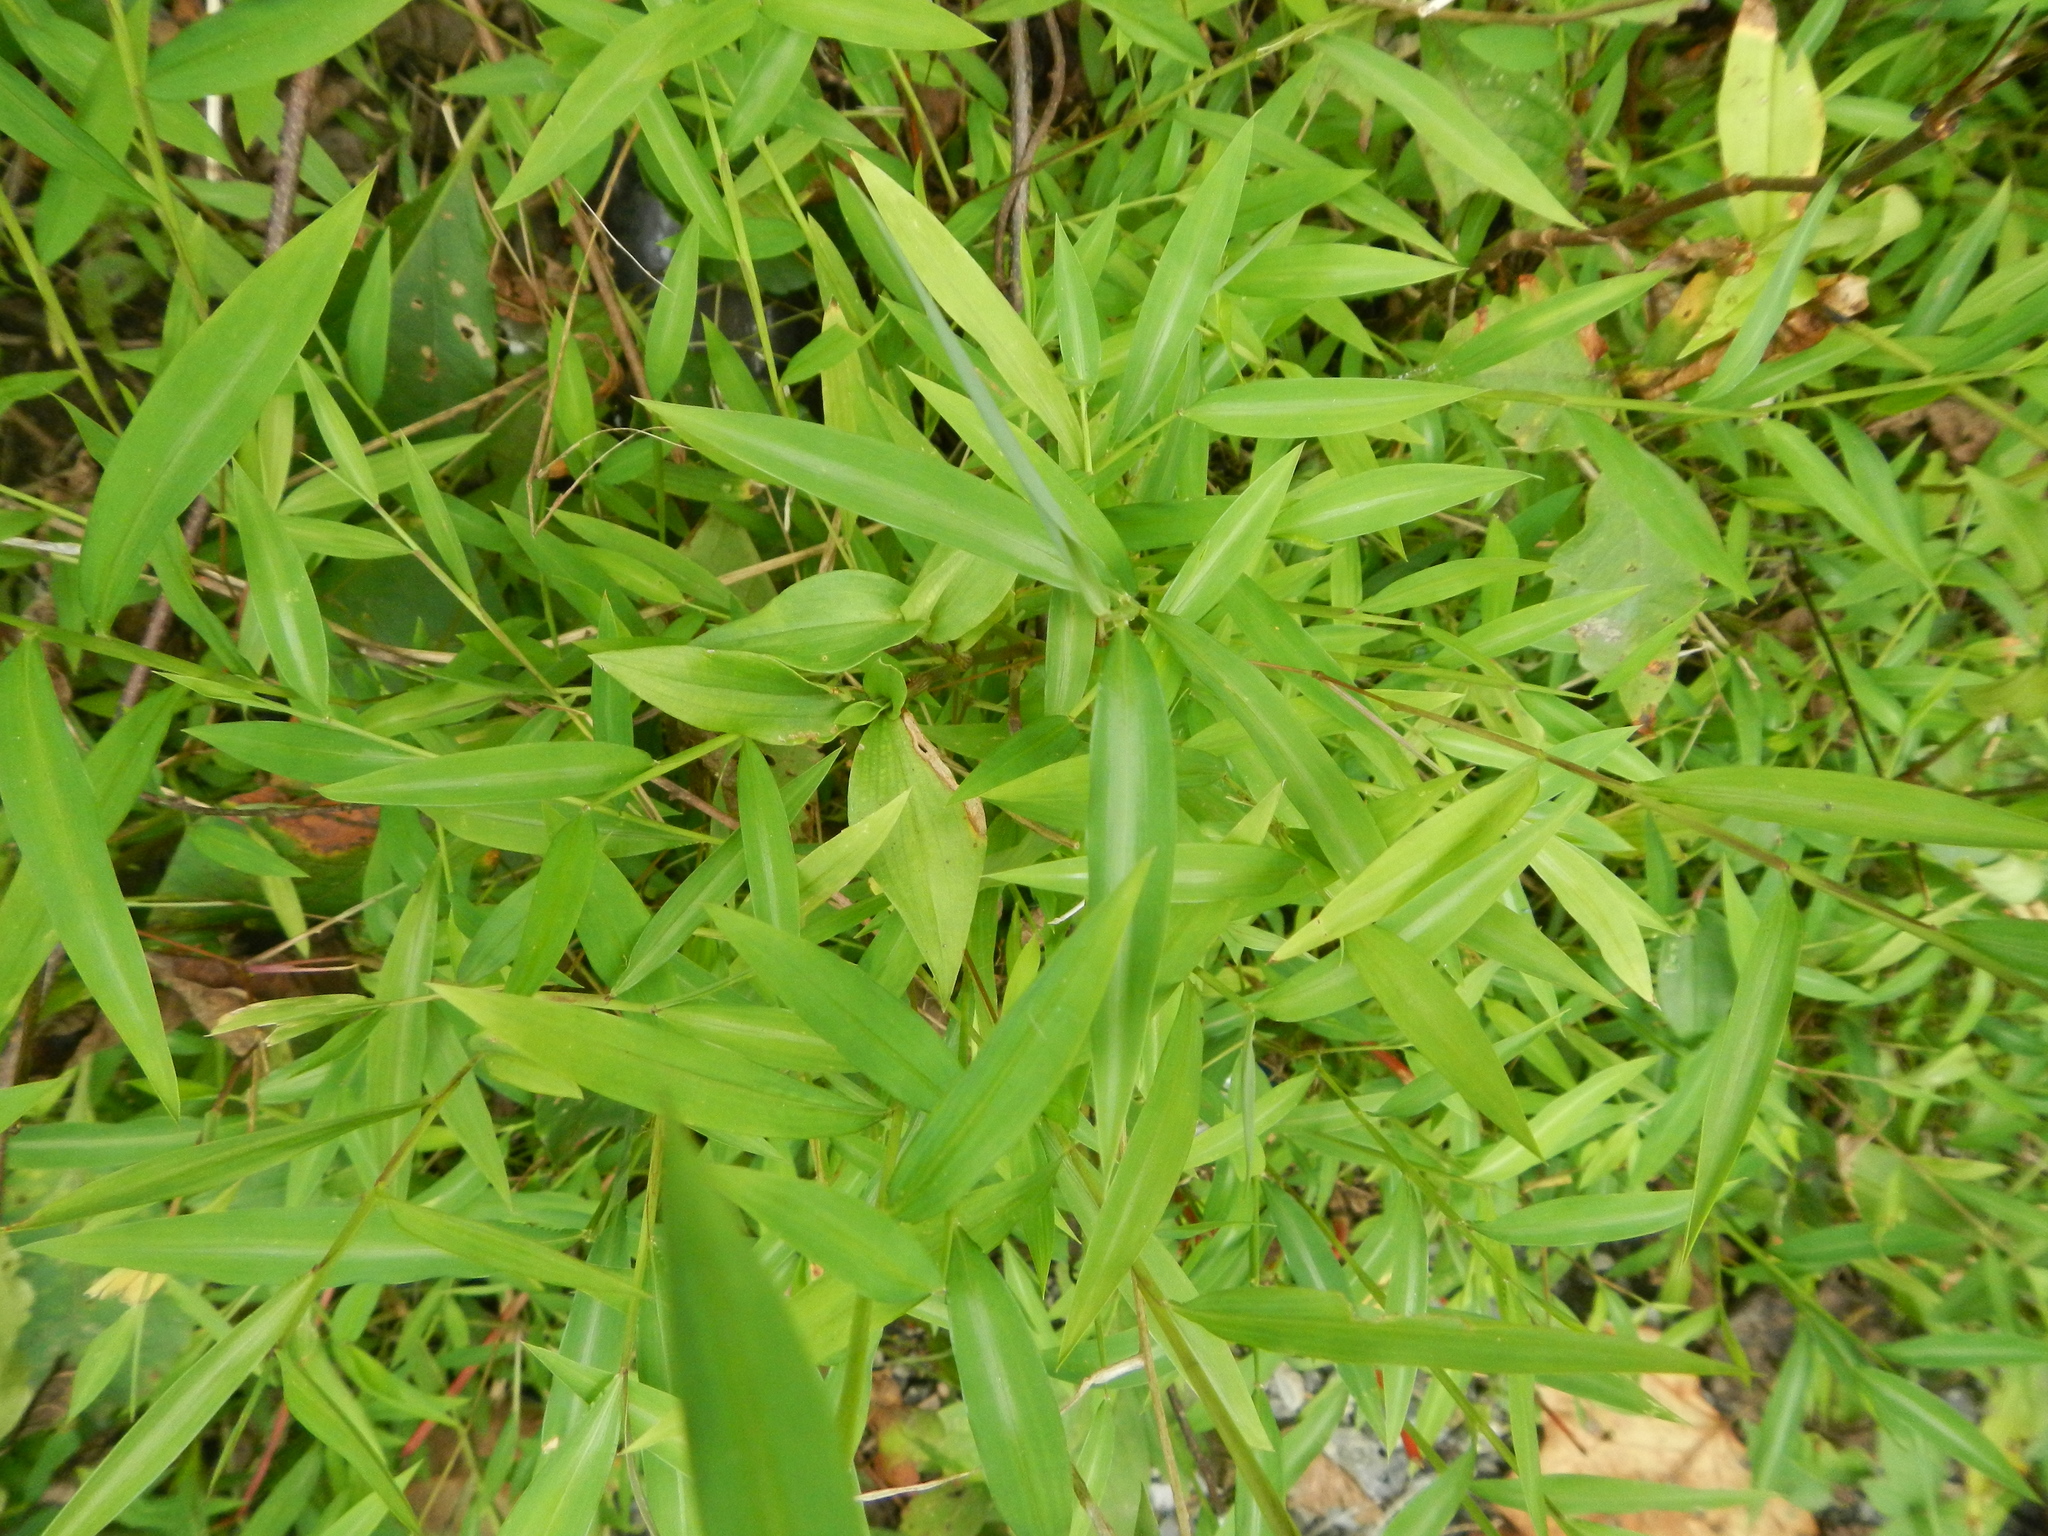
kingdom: Plantae
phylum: Tracheophyta
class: Liliopsida
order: Poales
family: Poaceae
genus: Microstegium
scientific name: Microstegium vimineum
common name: Japanese stiltgrass
